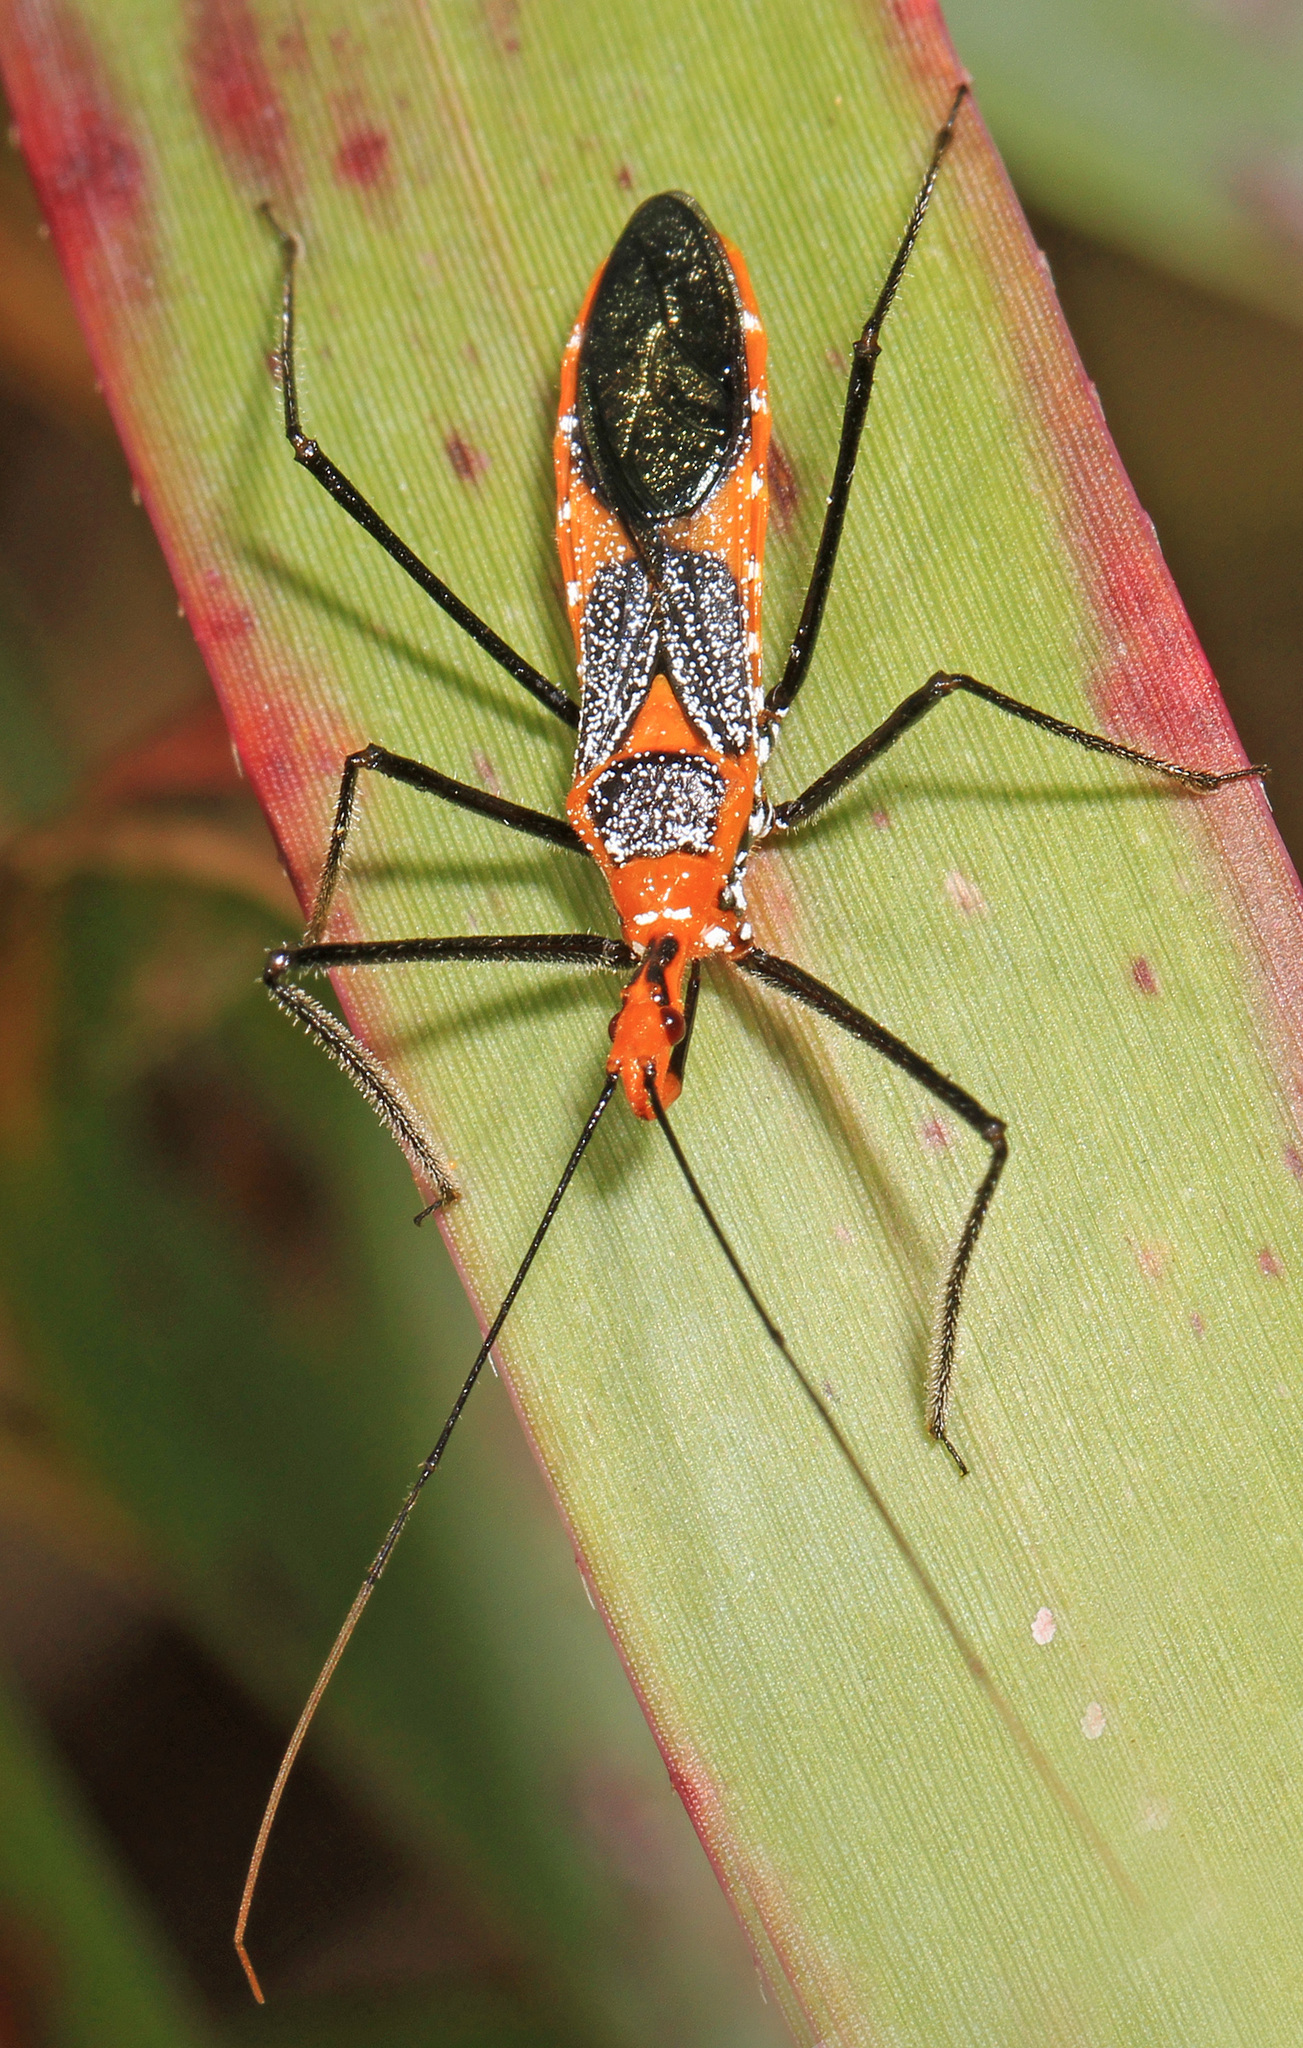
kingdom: Animalia
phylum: Arthropoda
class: Insecta
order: Hemiptera
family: Reduviidae
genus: Zelus
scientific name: Zelus longipes
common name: Milkweed assassin bug
